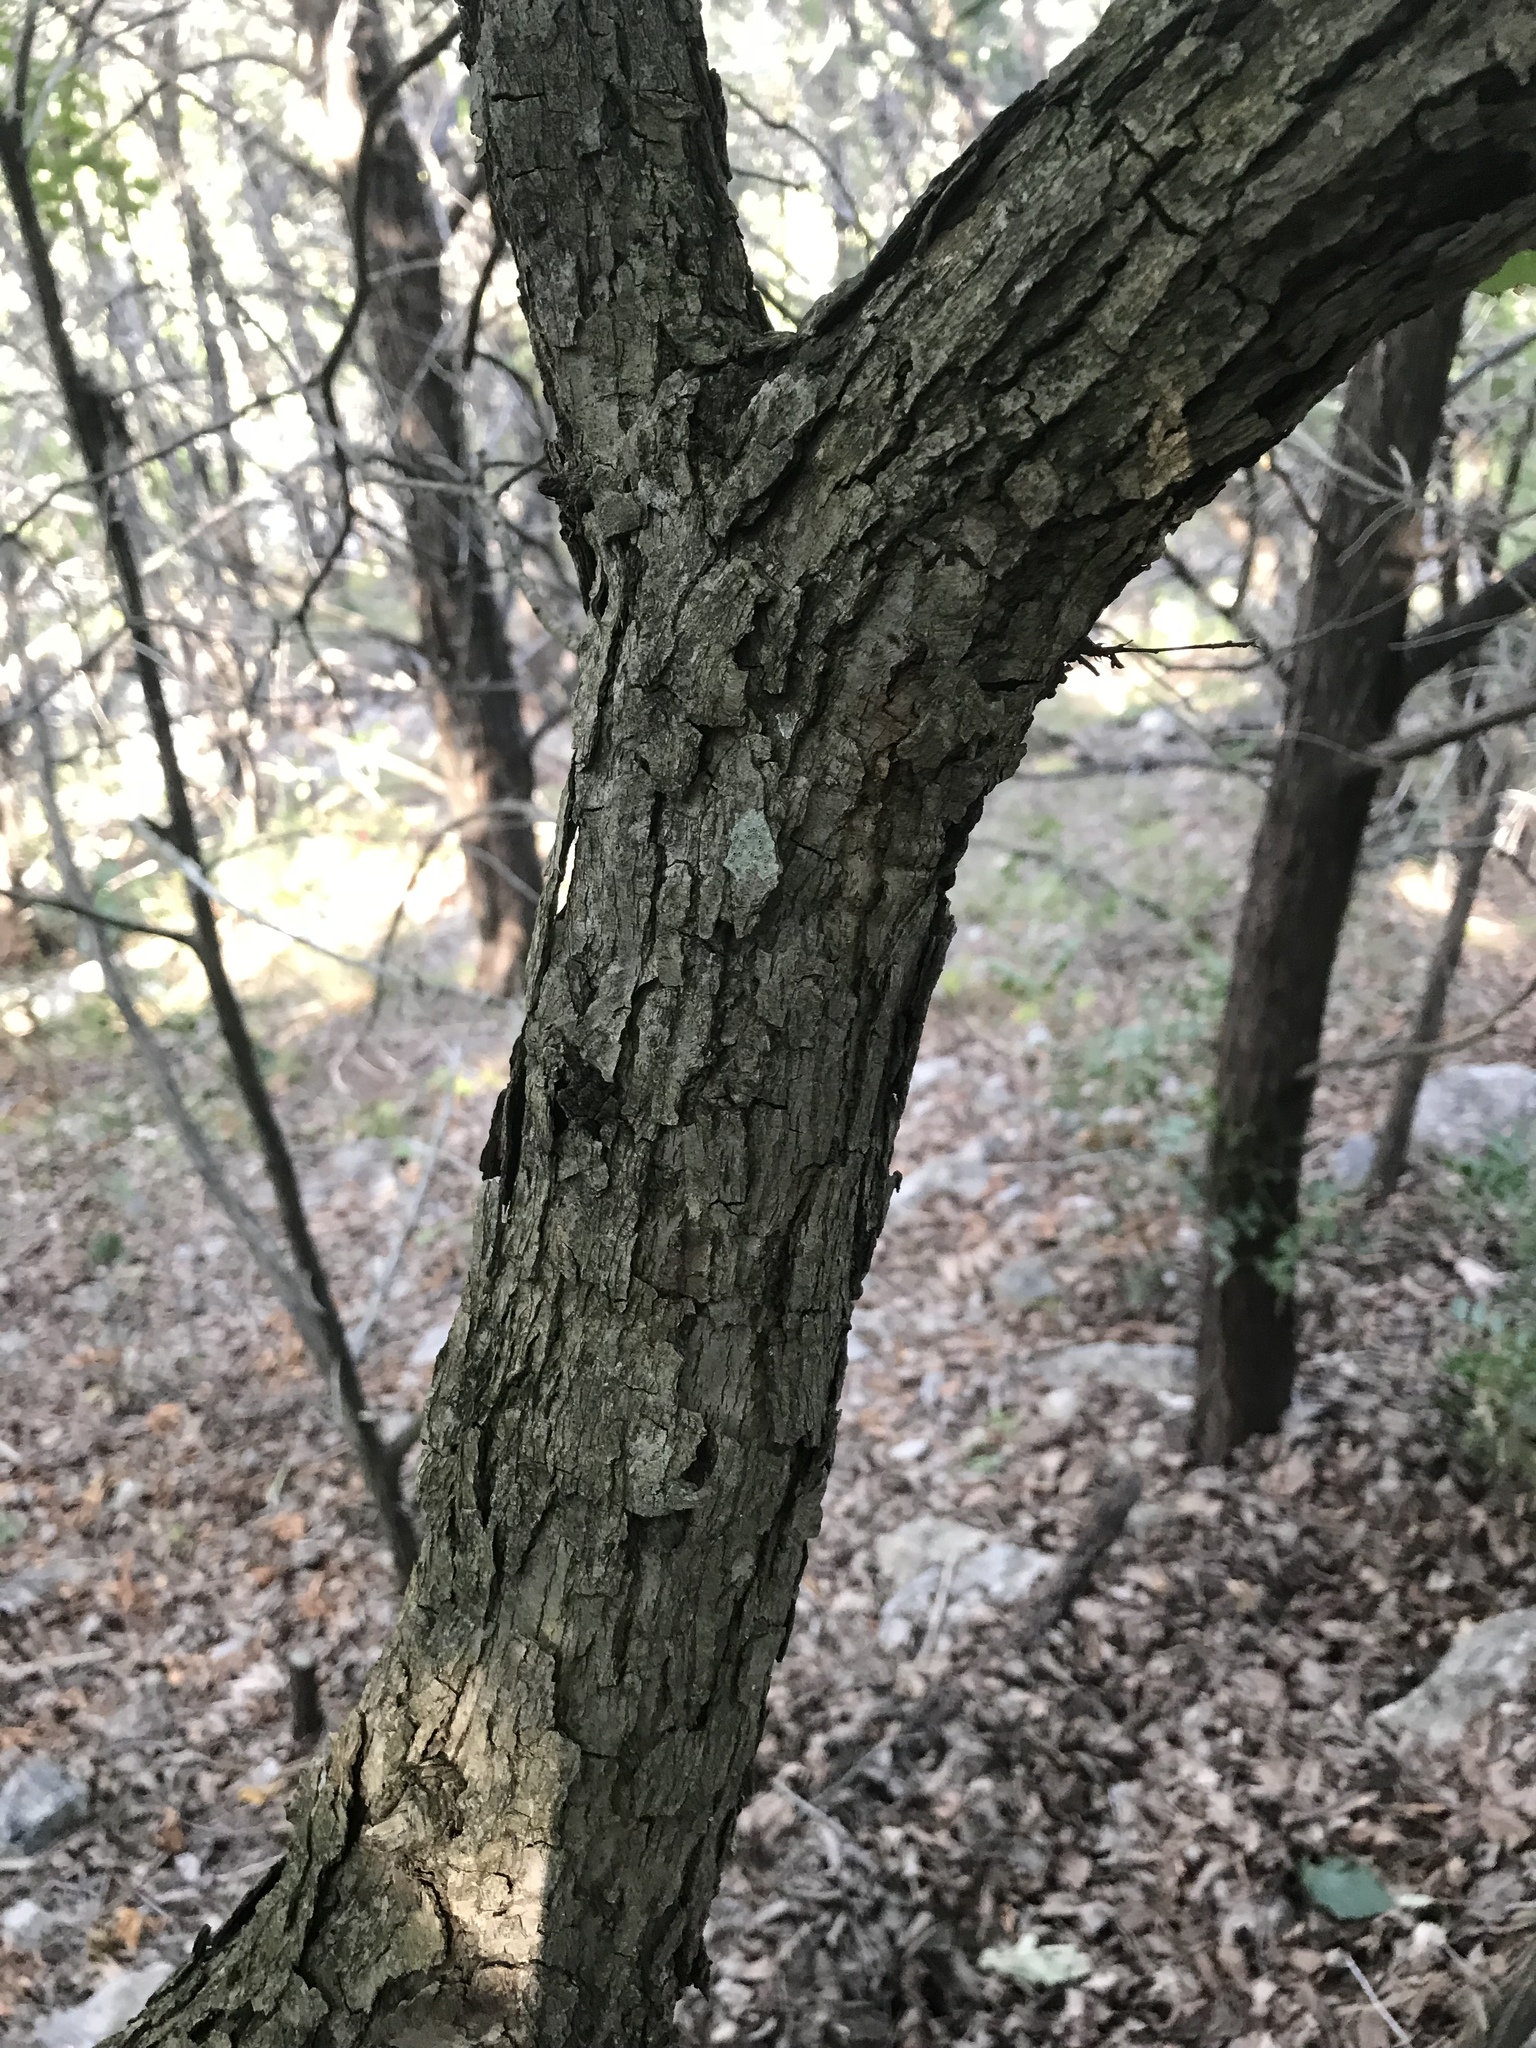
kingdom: Plantae
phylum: Tracheophyta
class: Magnoliopsida
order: Fagales
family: Fagaceae
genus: Quercus
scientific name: Quercus muehlenbergii
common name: Chinkapin oak
